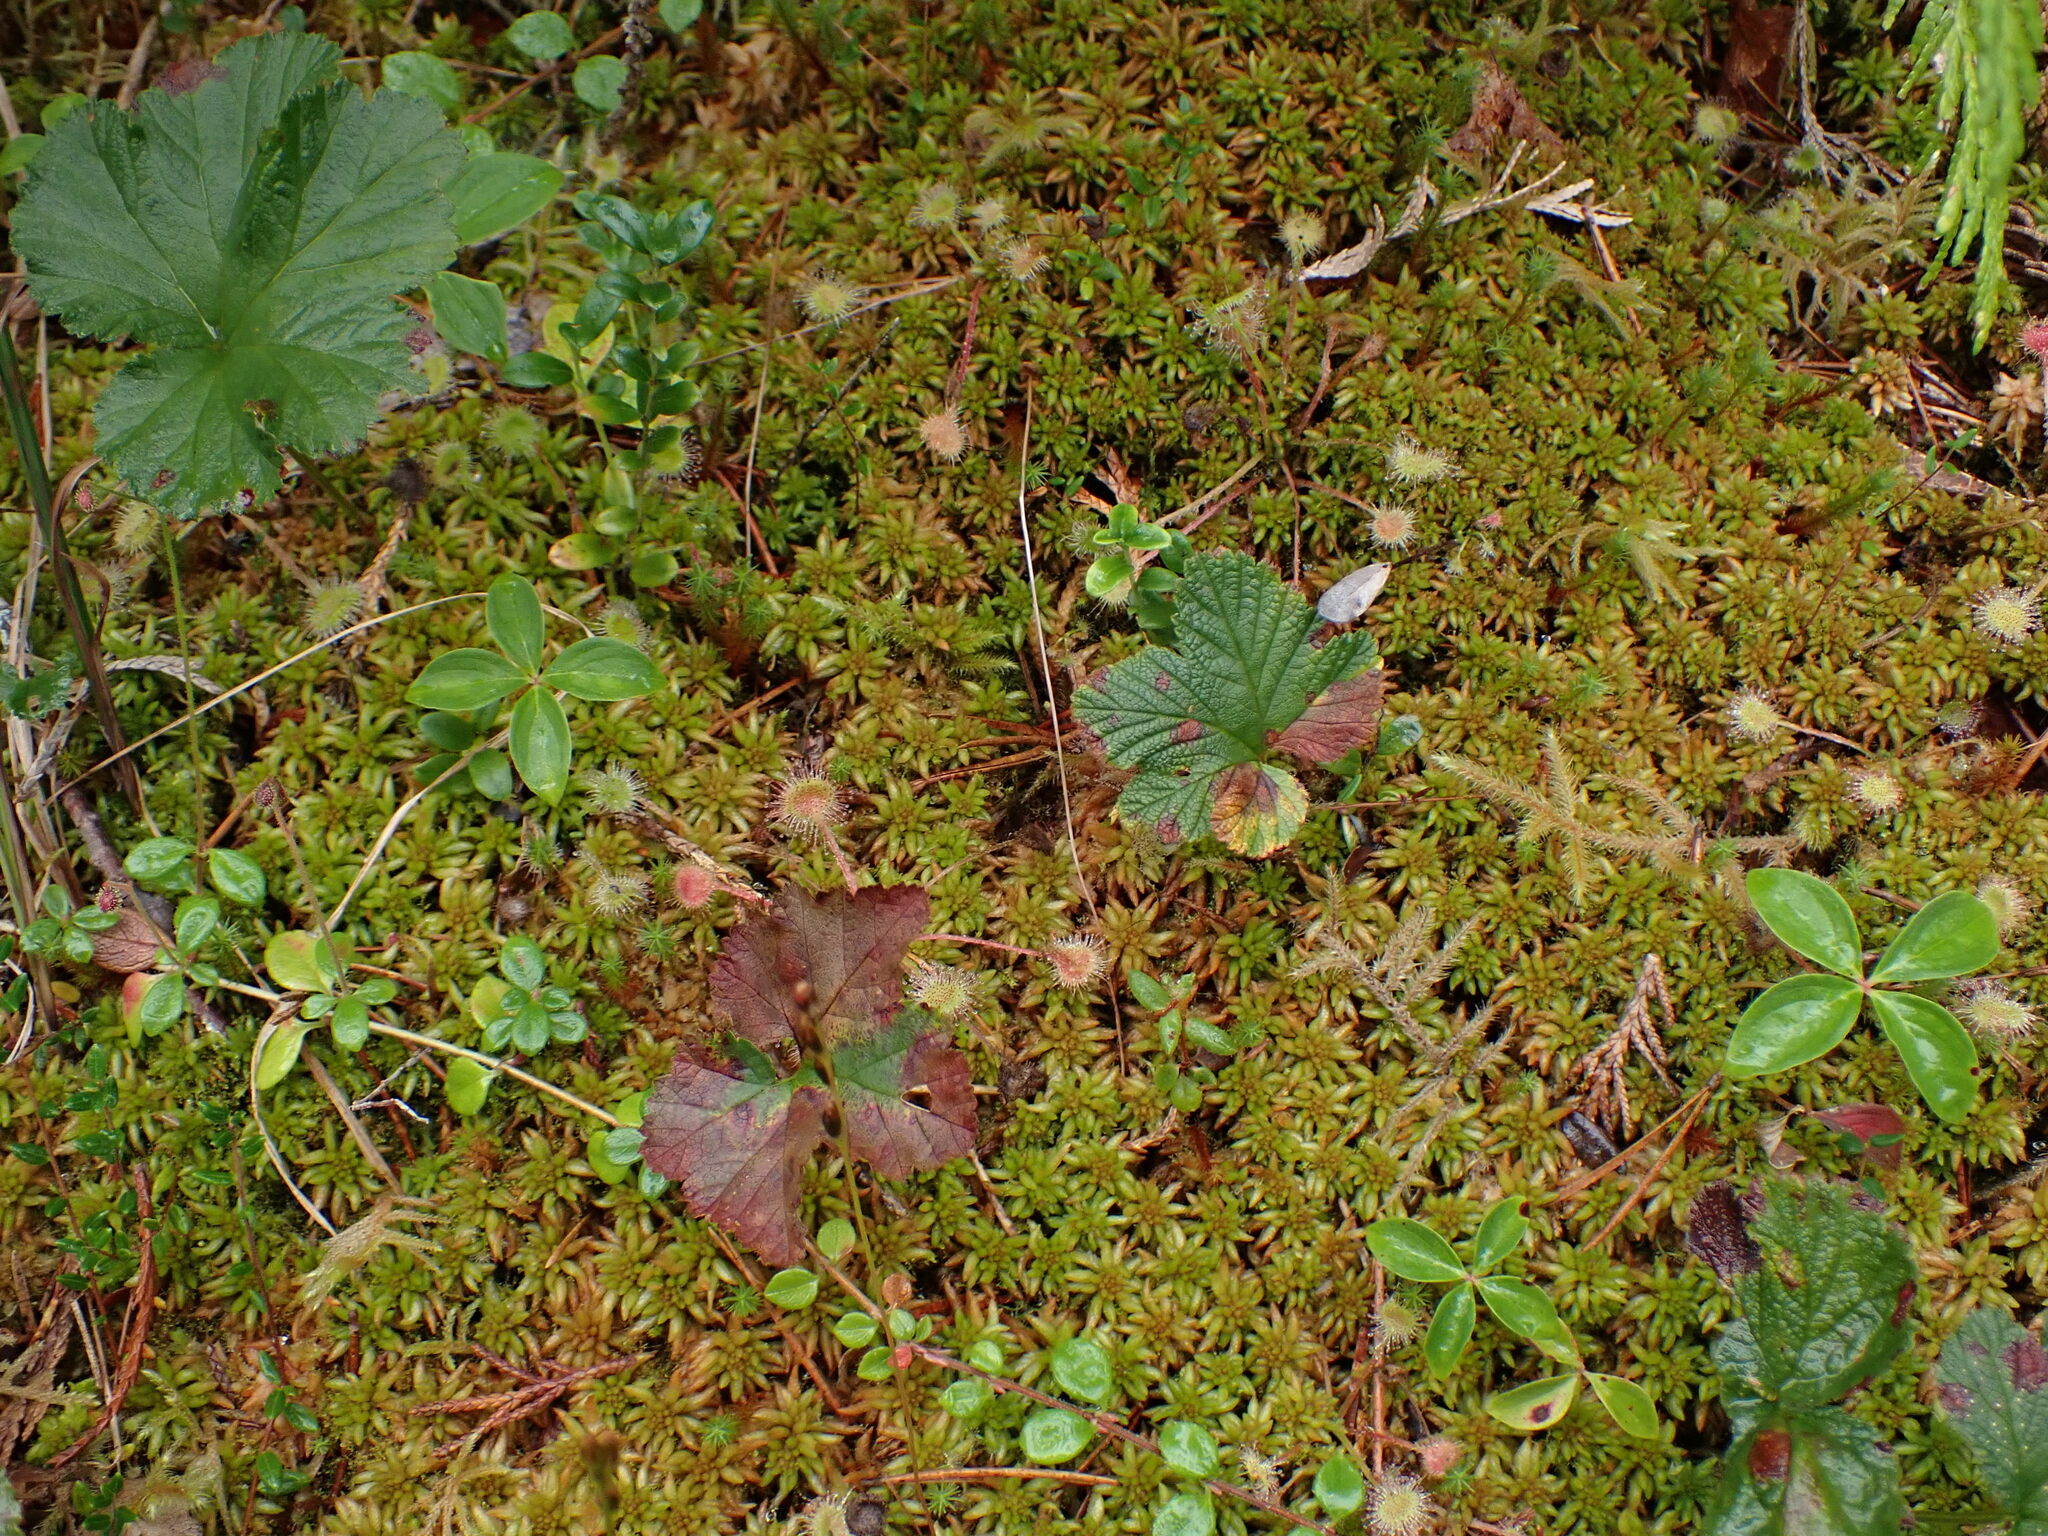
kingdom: Plantae
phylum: Tracheophyta
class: Magnoliopsida
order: Rosales
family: Rosaceae
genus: Rubus
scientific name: Rubus chamaemorus
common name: Cloudberry
